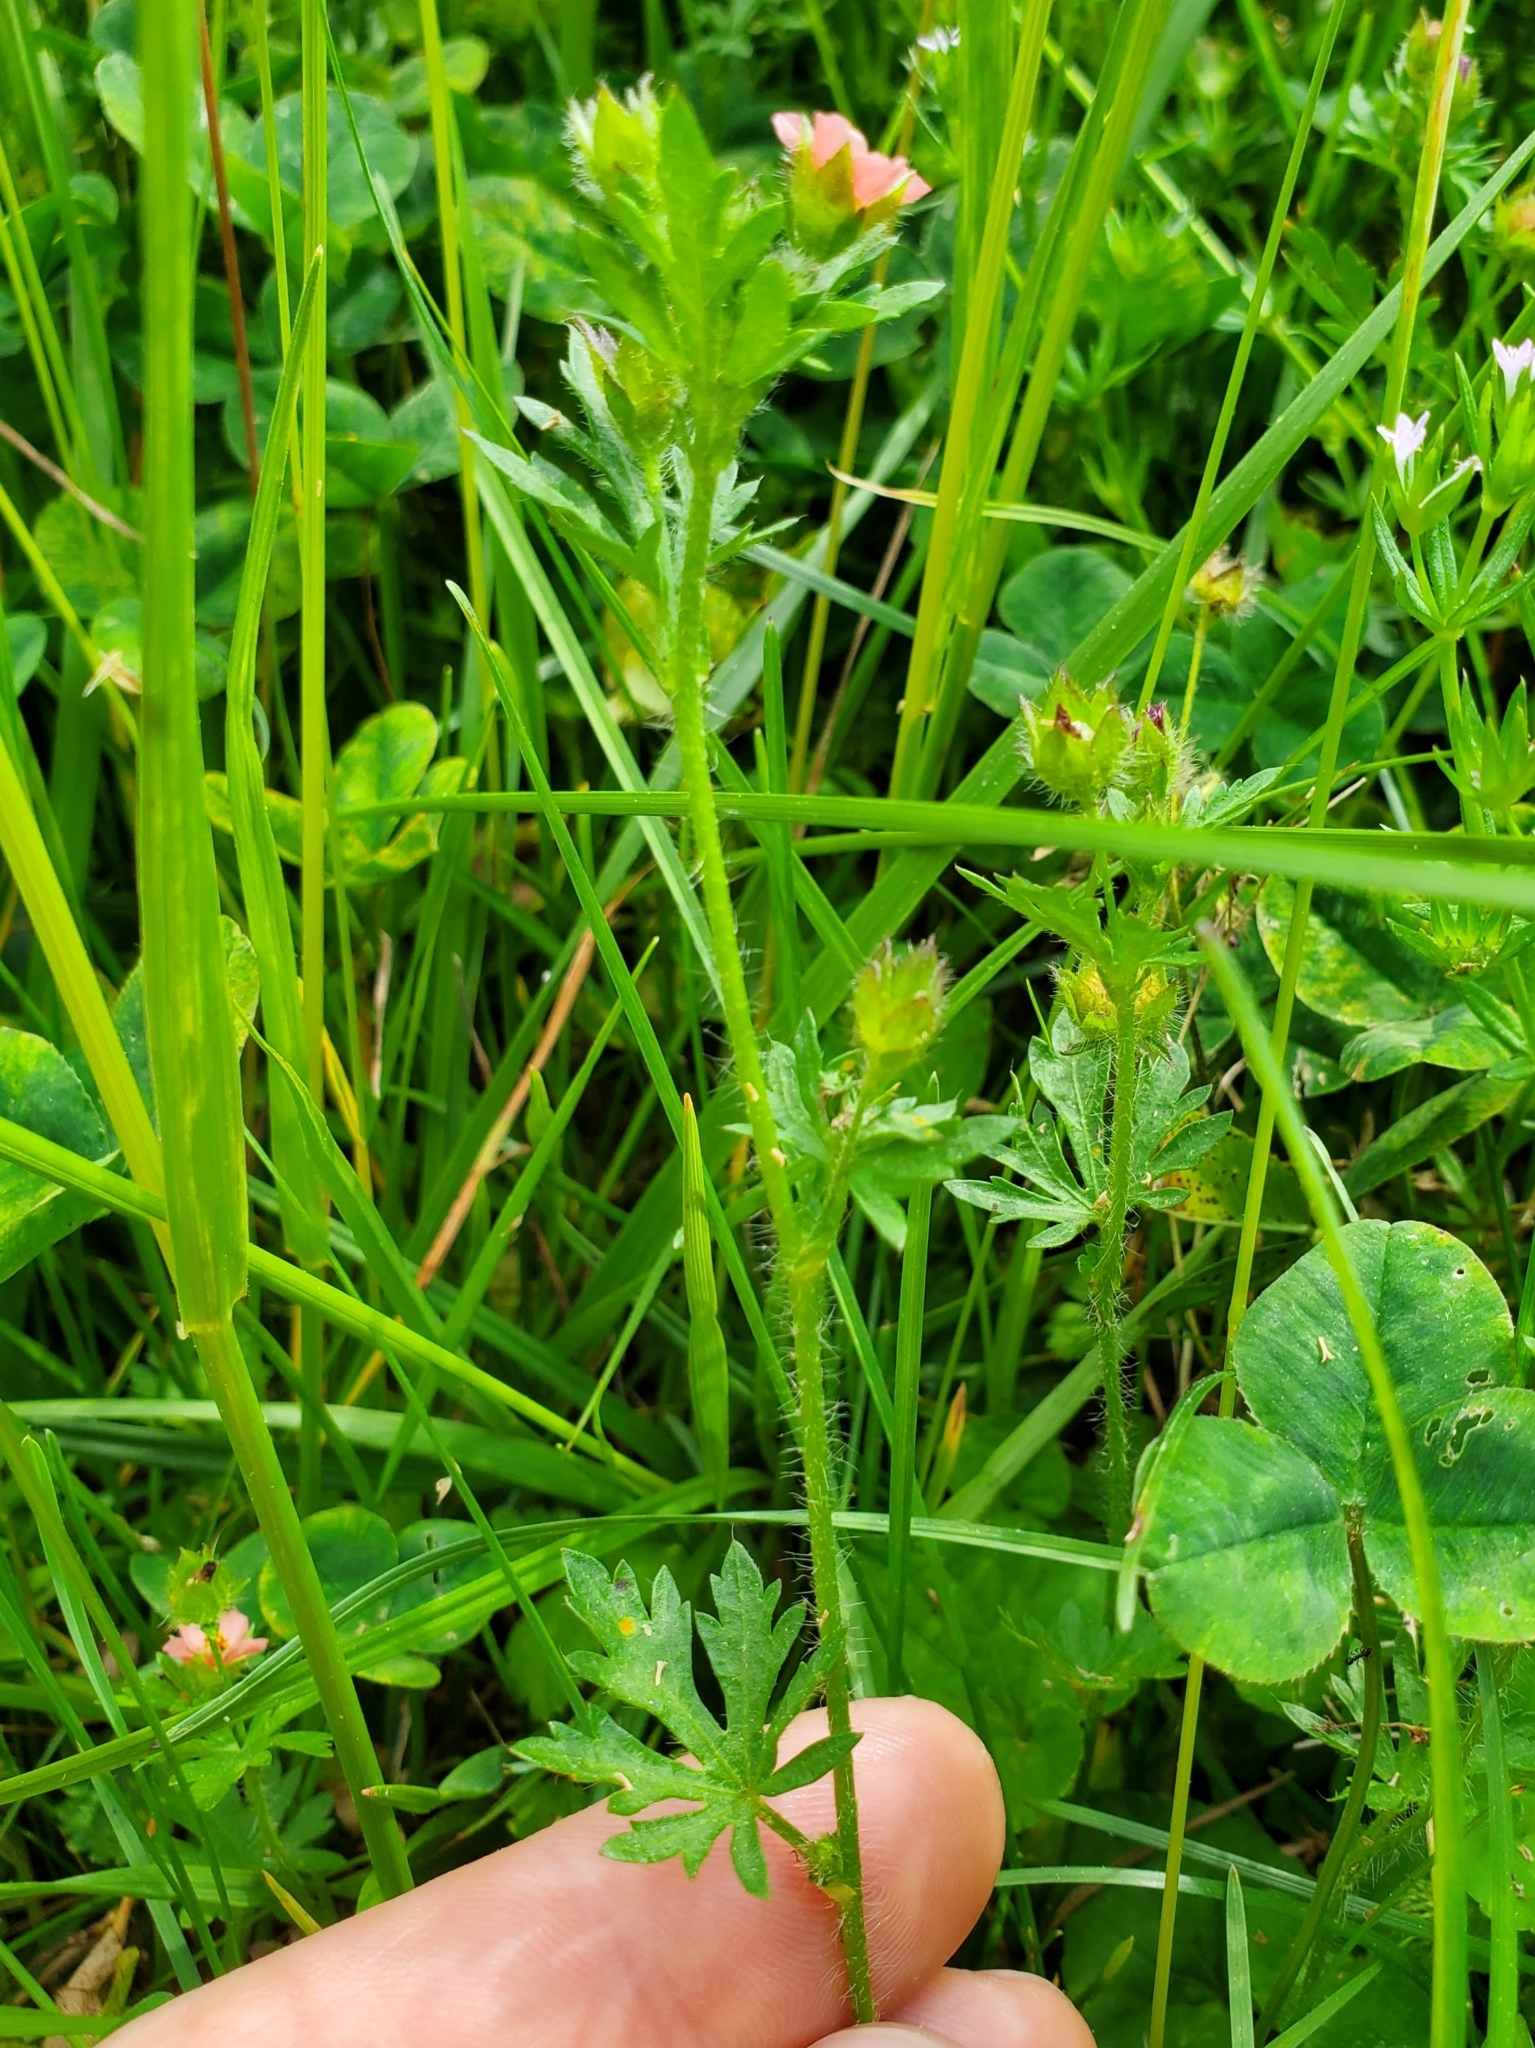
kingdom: Plantae
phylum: Tracheophyta
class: Magnoliopsida
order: Malvales
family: Malvaceae
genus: Modiola
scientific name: Modiola caroliniana
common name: Carolina bristlemallow
